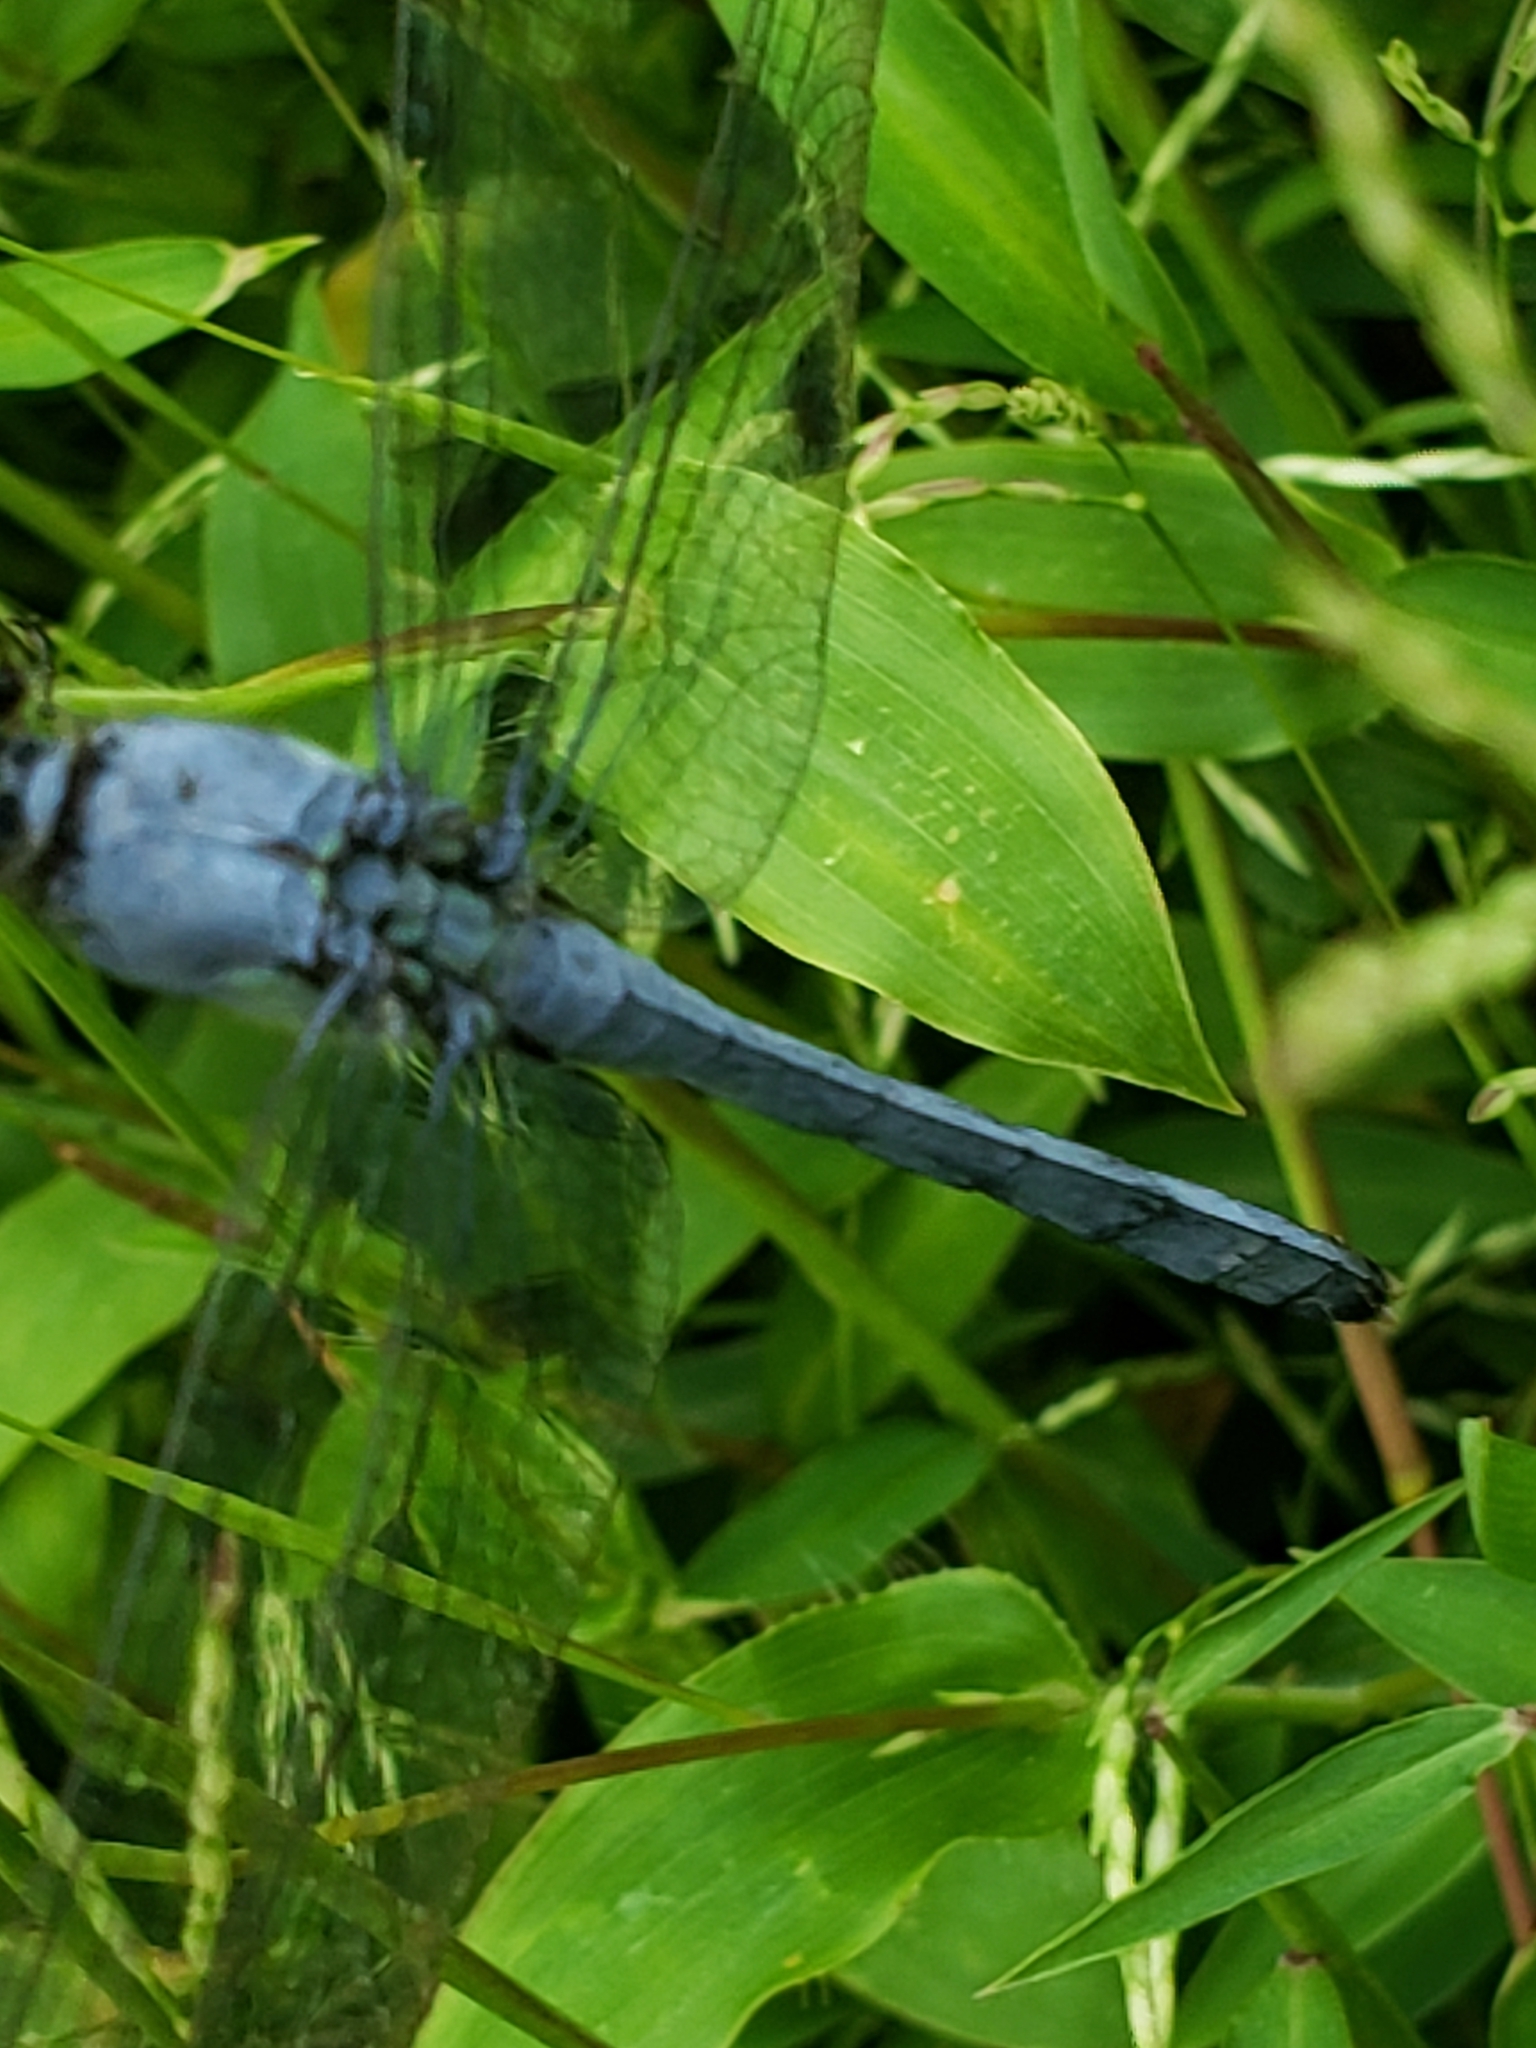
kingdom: Animalia
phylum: Arthropoda
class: Insecta
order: Odonata
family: Libellulidae
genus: Erythemis
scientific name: Erythemis simplicicollis
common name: Eastern pondhawk
